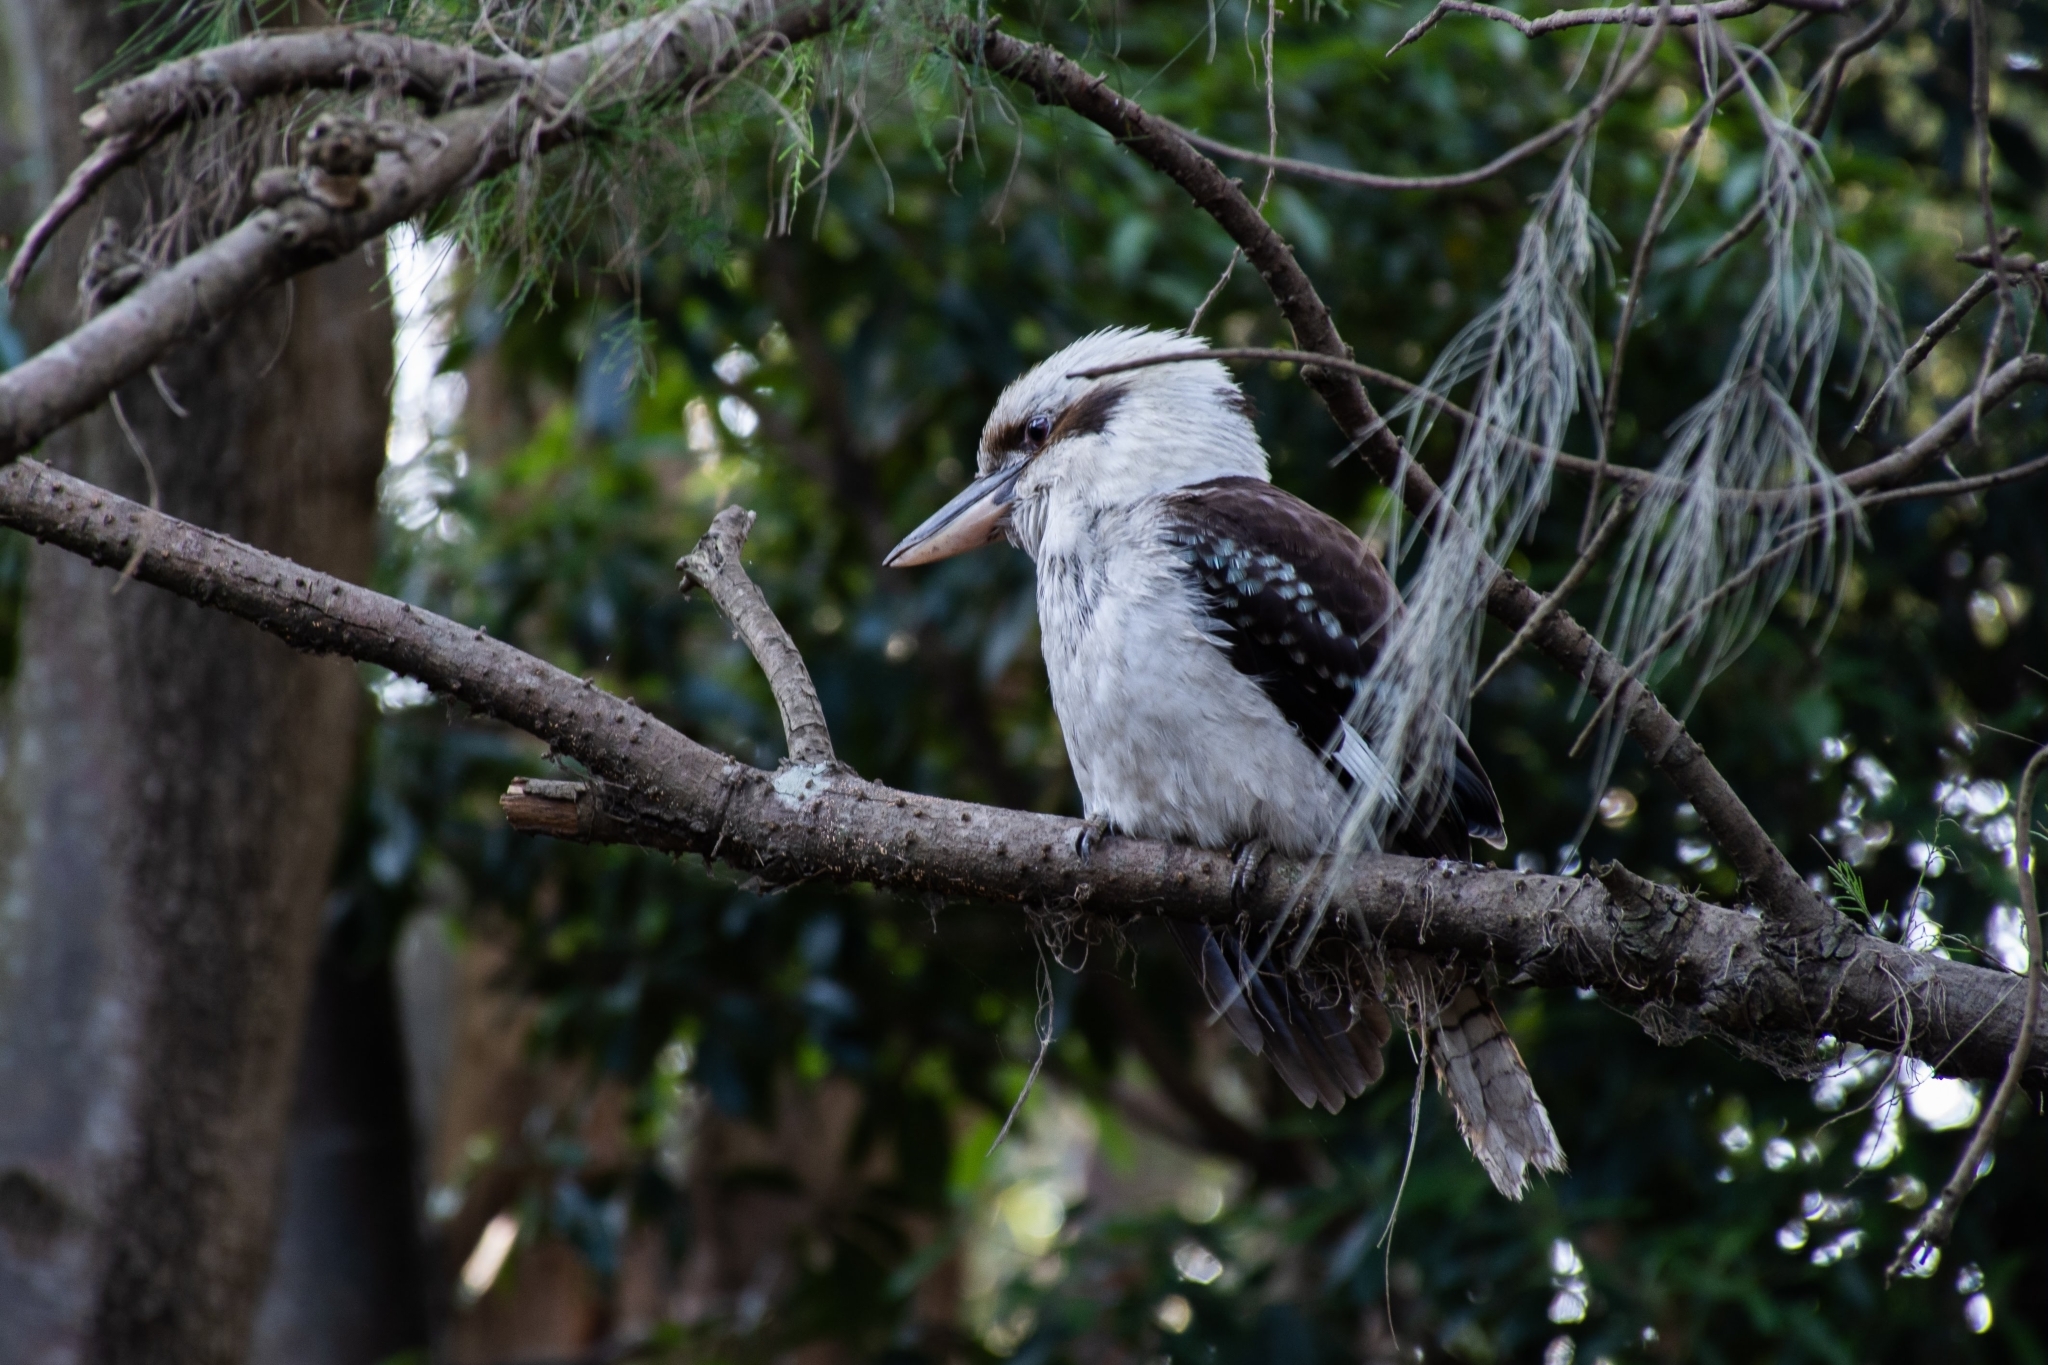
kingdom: Animalia
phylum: Chordata
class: Aves
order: Coraciiformes
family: Alcedinidae
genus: Dacelo
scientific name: Dacelo novaeguineae
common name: Laughing kookaburra
